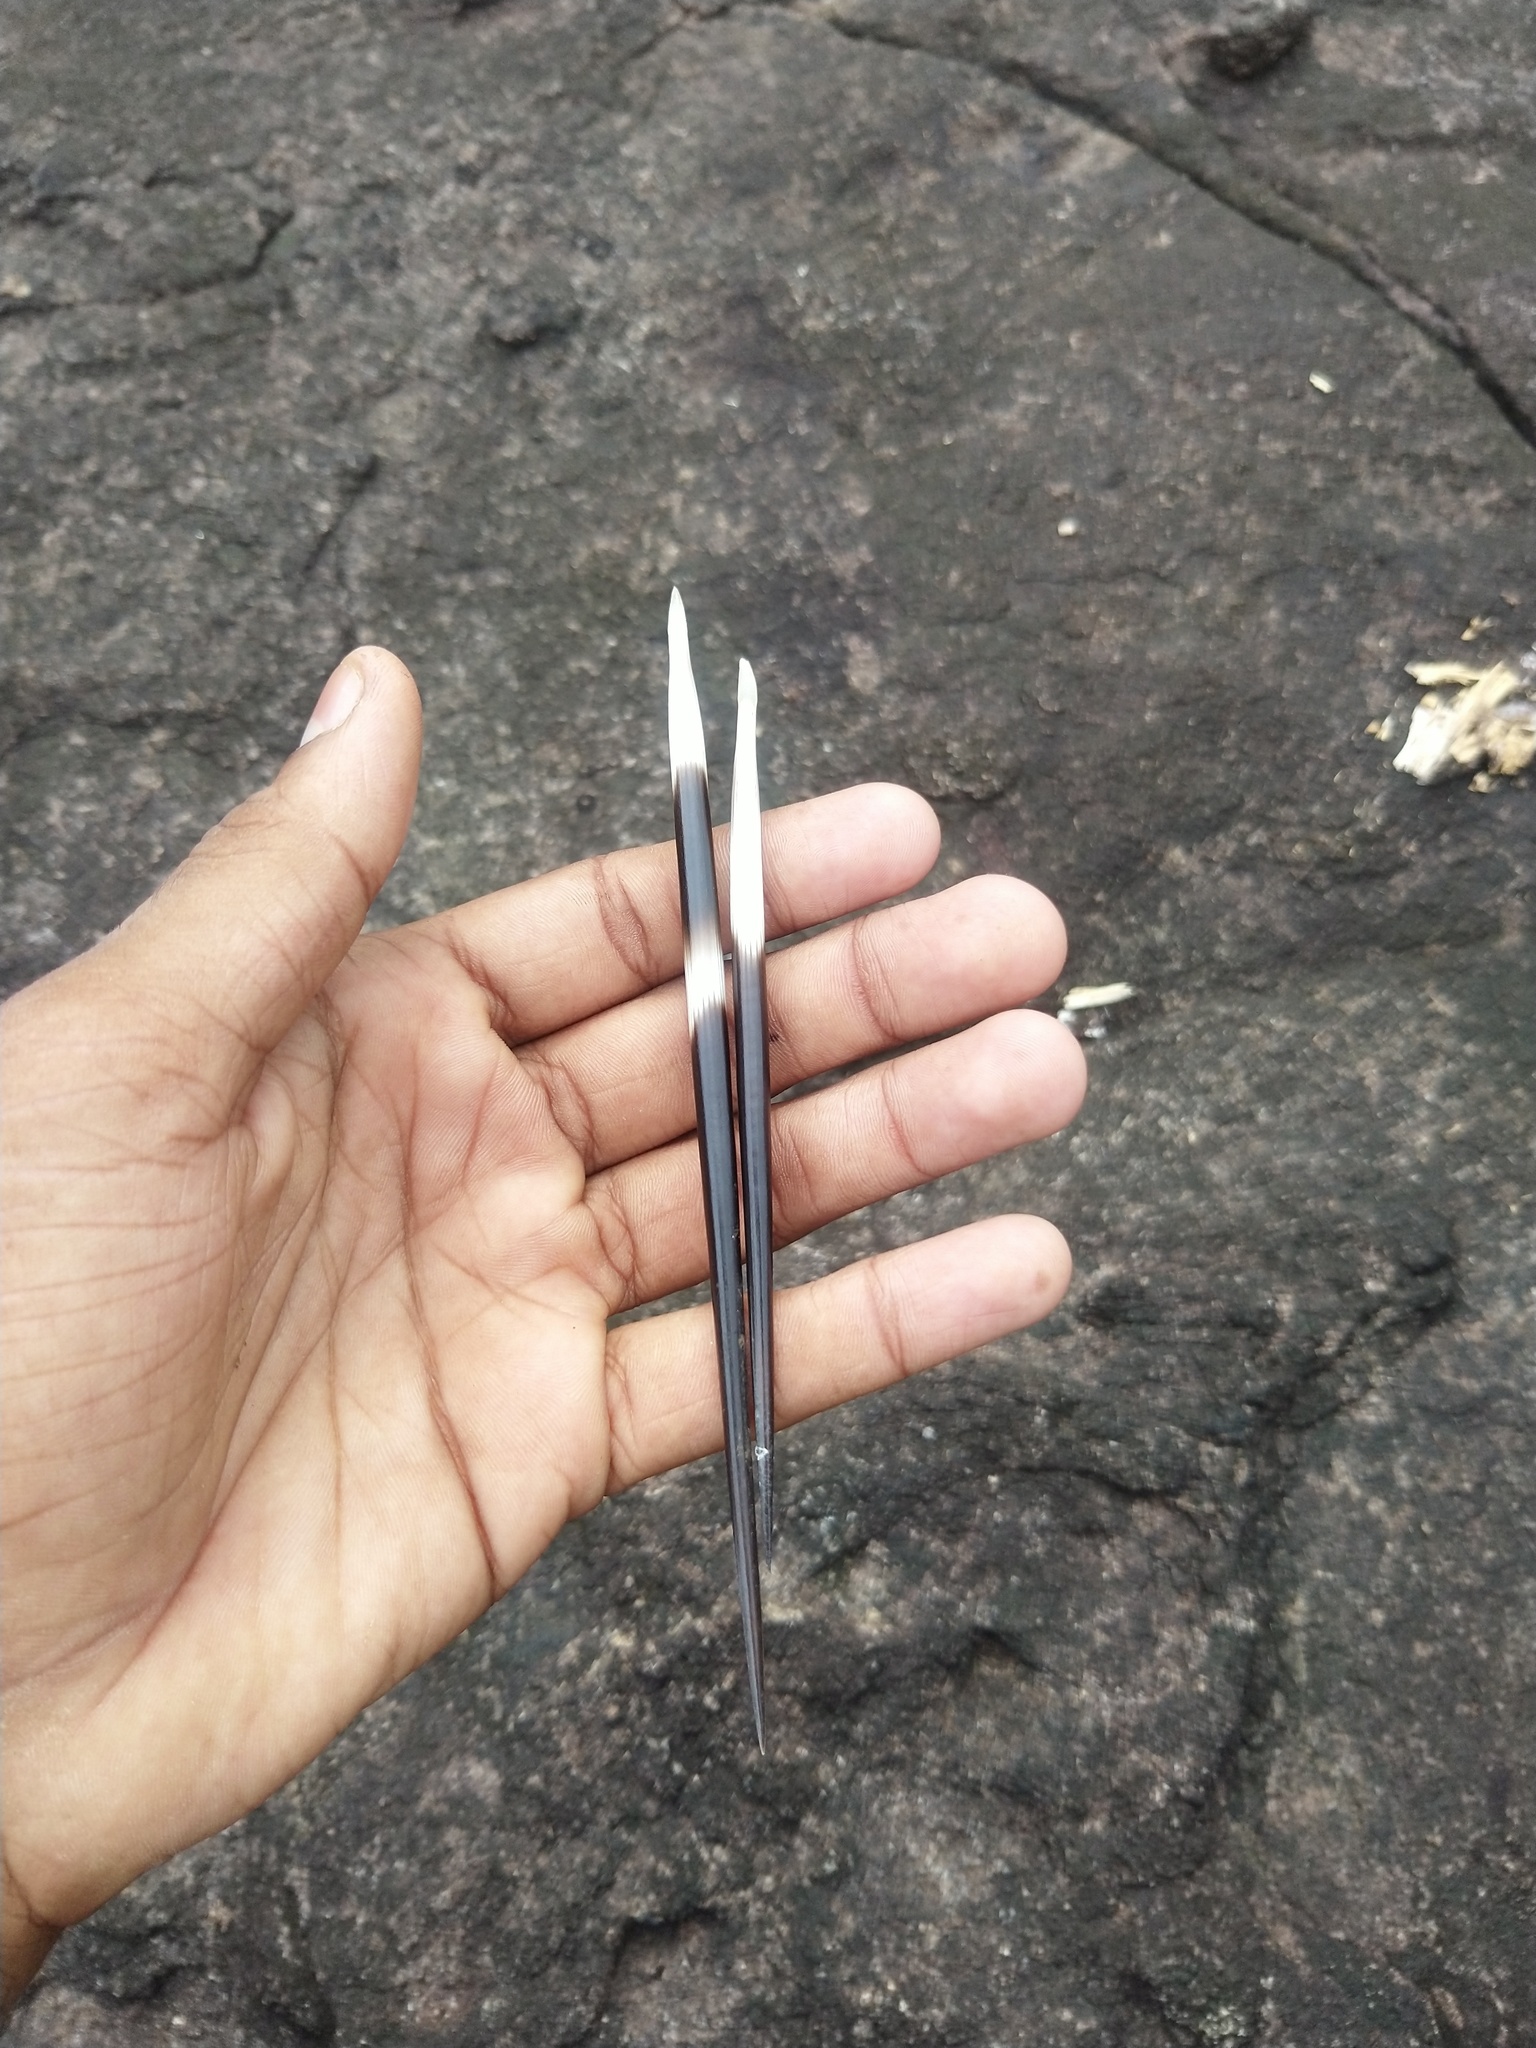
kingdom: Animalia
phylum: Chordata
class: Mammalia
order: Rodentia
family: Hystricidae
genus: Hystrix
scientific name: Hystrix indica
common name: Indian crested porcupine
